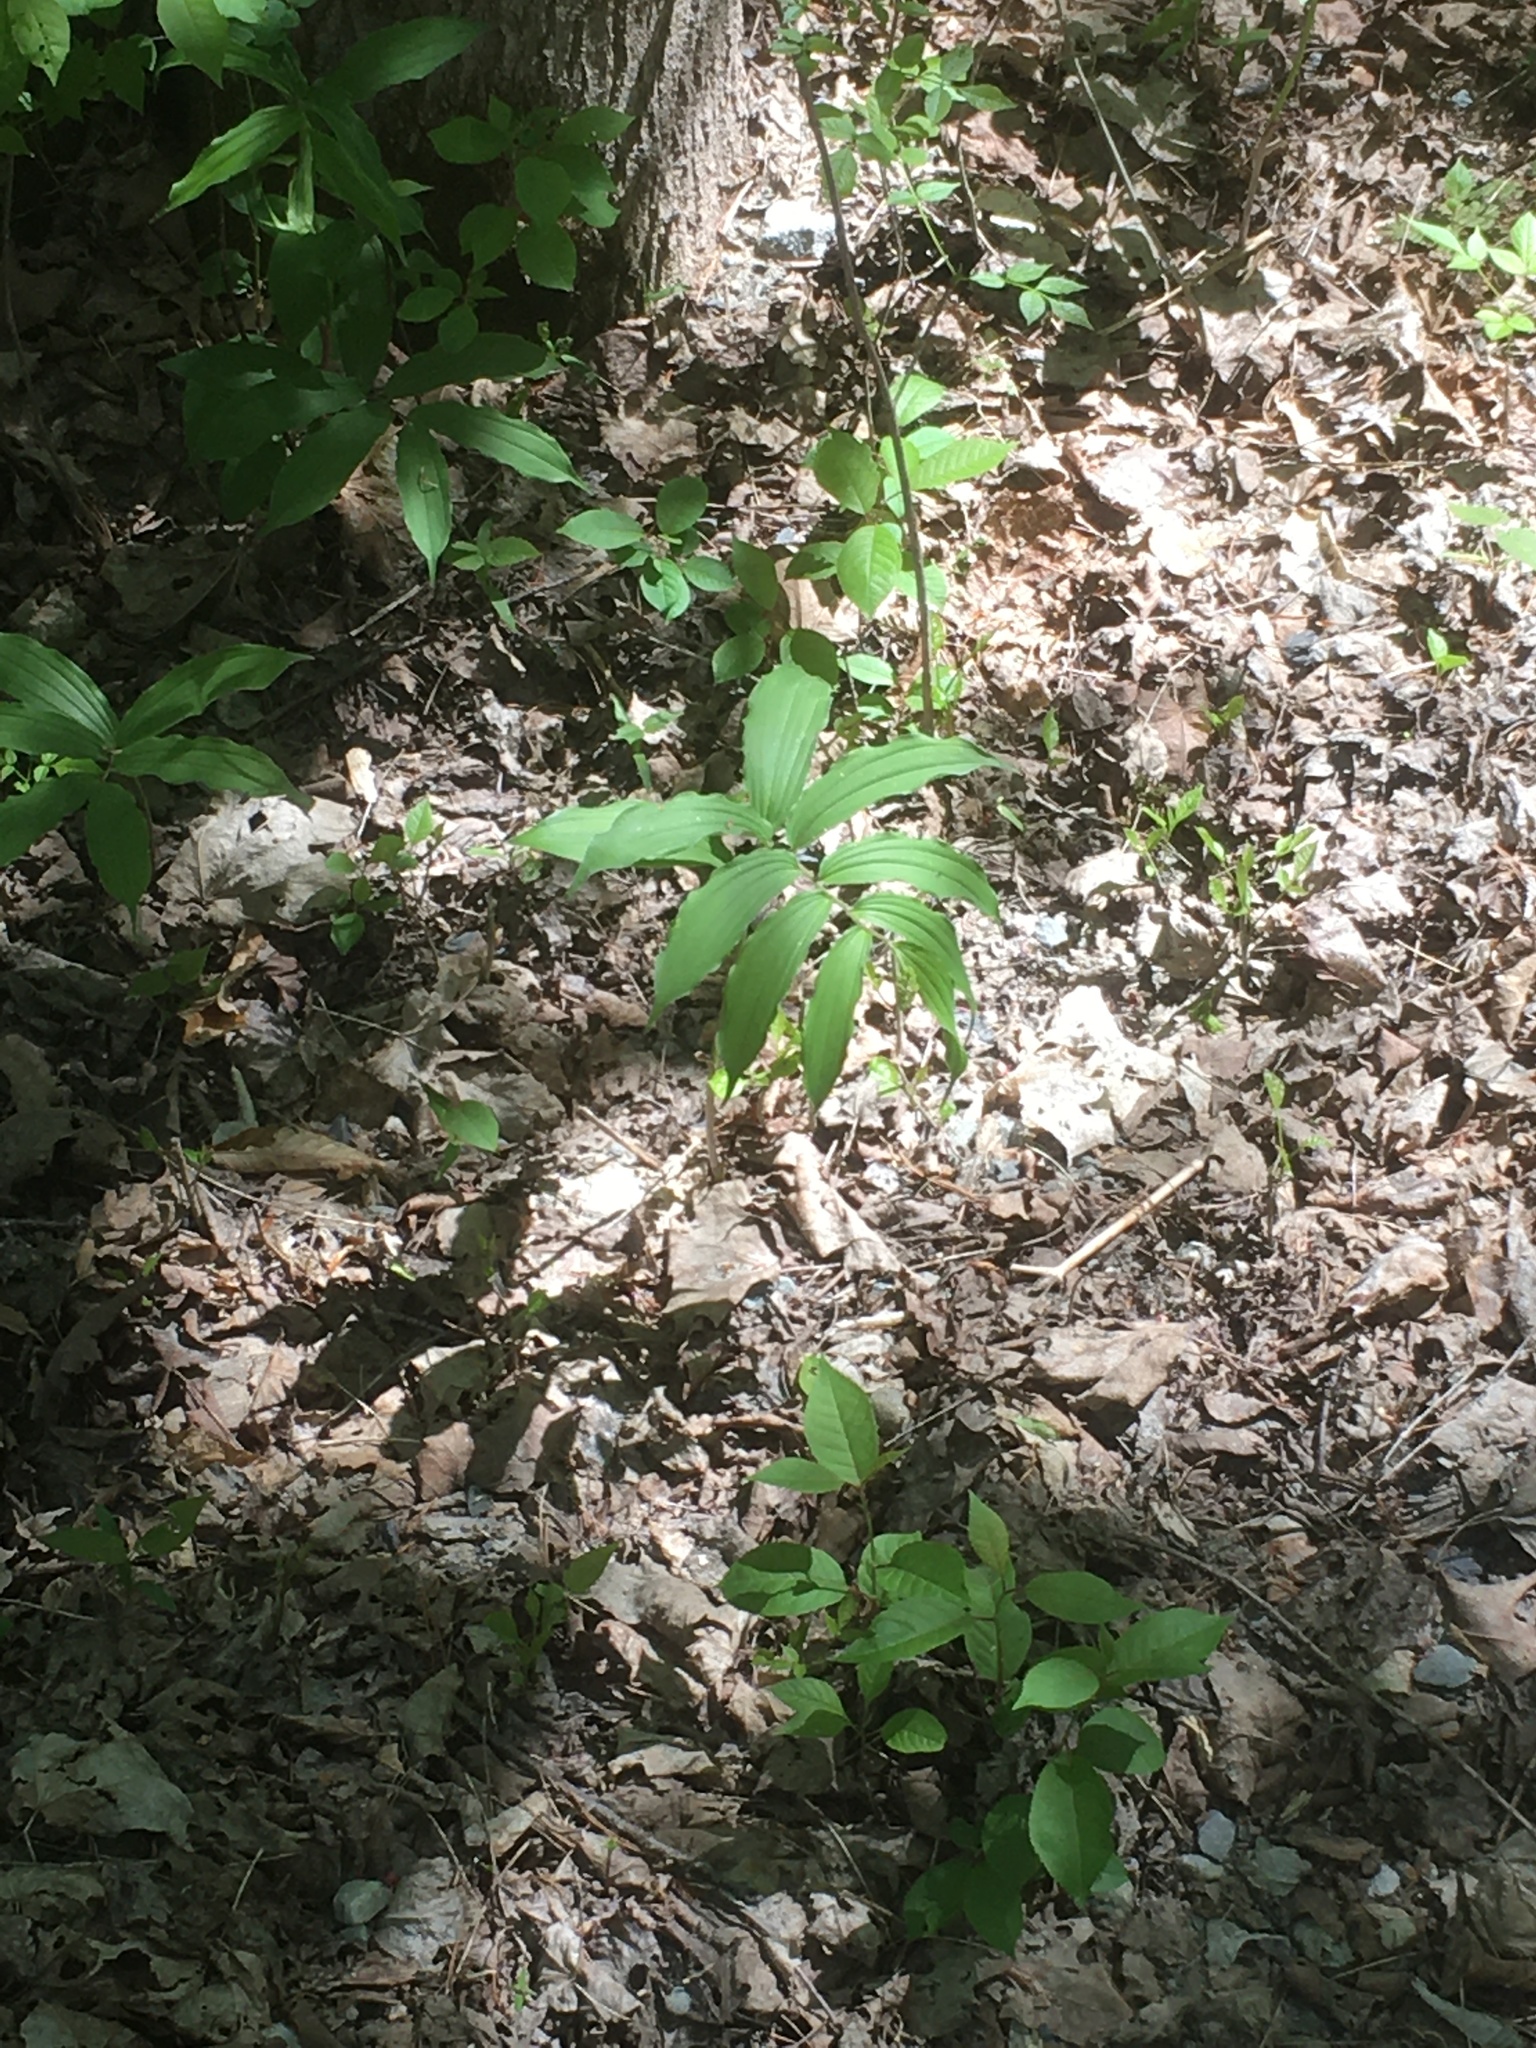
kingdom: Plantae
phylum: Tracheophyta
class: Liliopsida
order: Asparagales
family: Asparagaceae
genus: Maianthemum
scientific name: Maianthemum racemosum
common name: False spikenard
